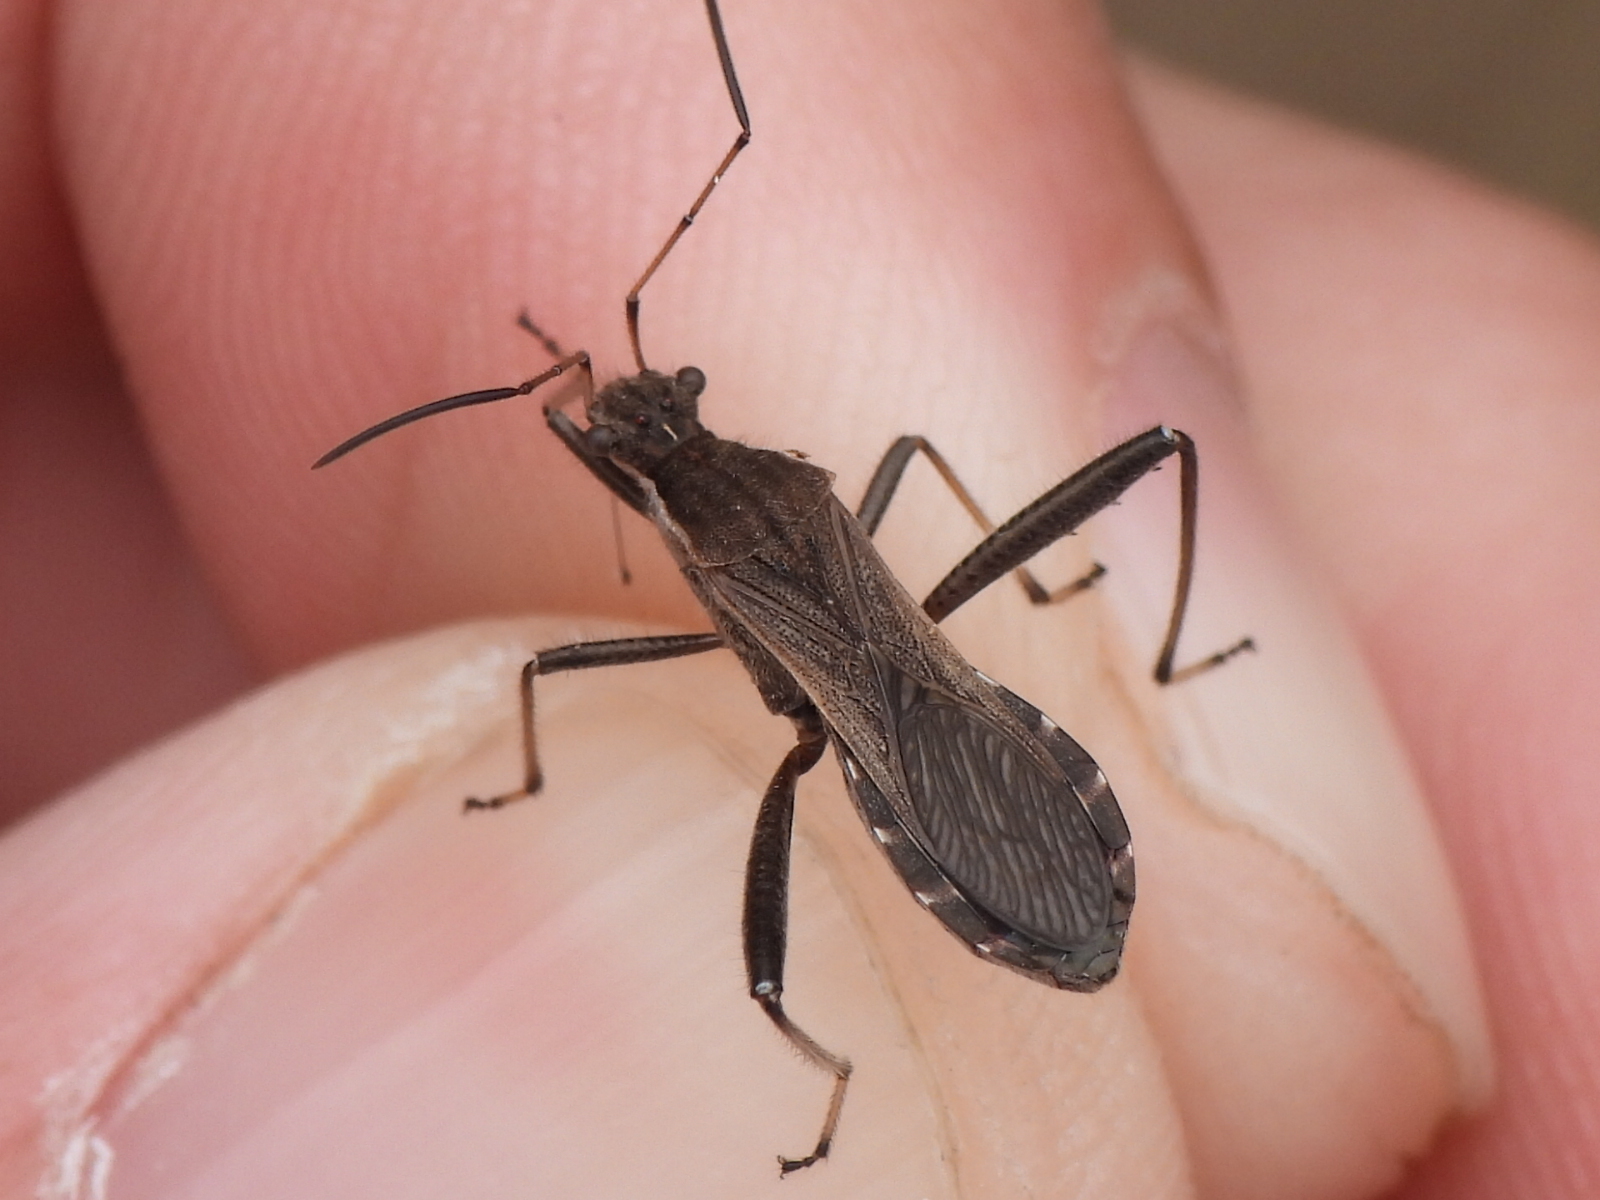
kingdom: Animalia
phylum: Arthropoda
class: Insecta
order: Hemiptera
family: Alydidae
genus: Alydus
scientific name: Alydus pilosulus
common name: Broad-headed bug
